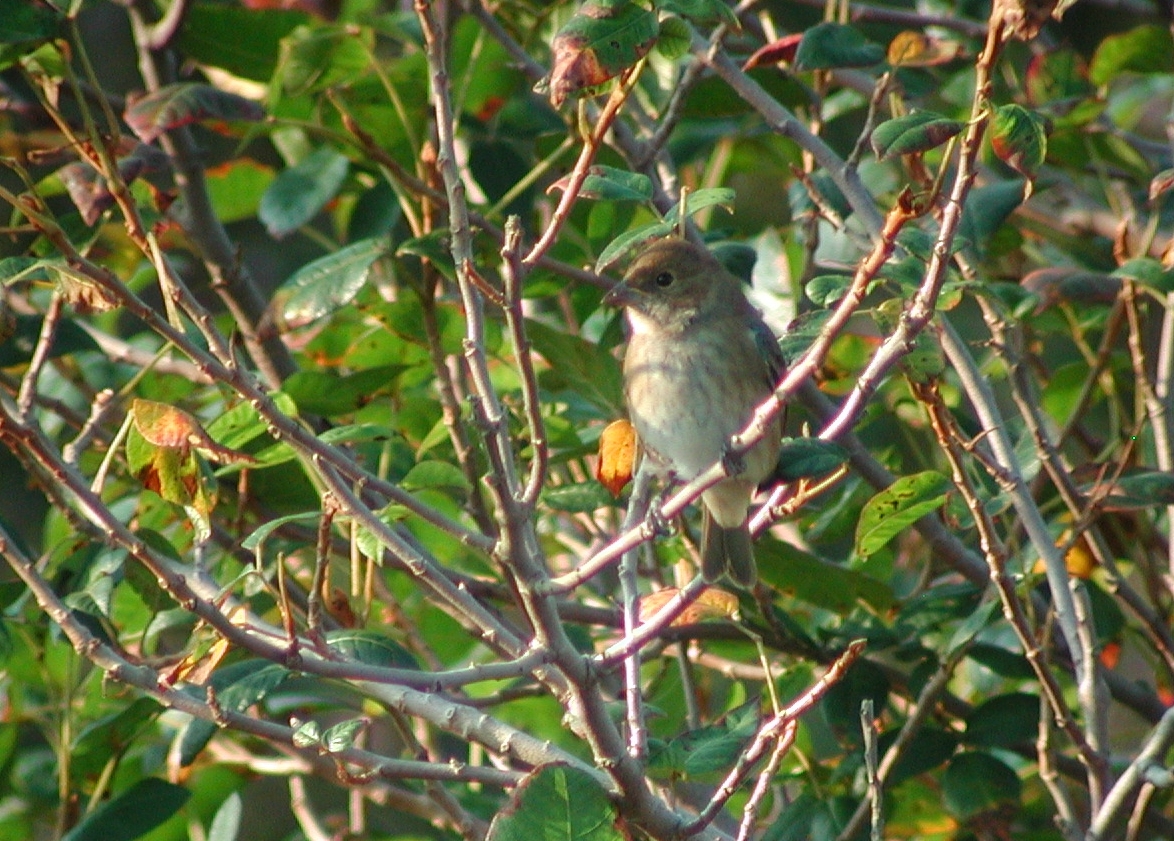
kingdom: Animalia
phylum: Chordata
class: Aves
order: Passeriformes
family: Cardinalidae
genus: Passerina
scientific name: Passerina cyanea
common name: Indigo bunting
